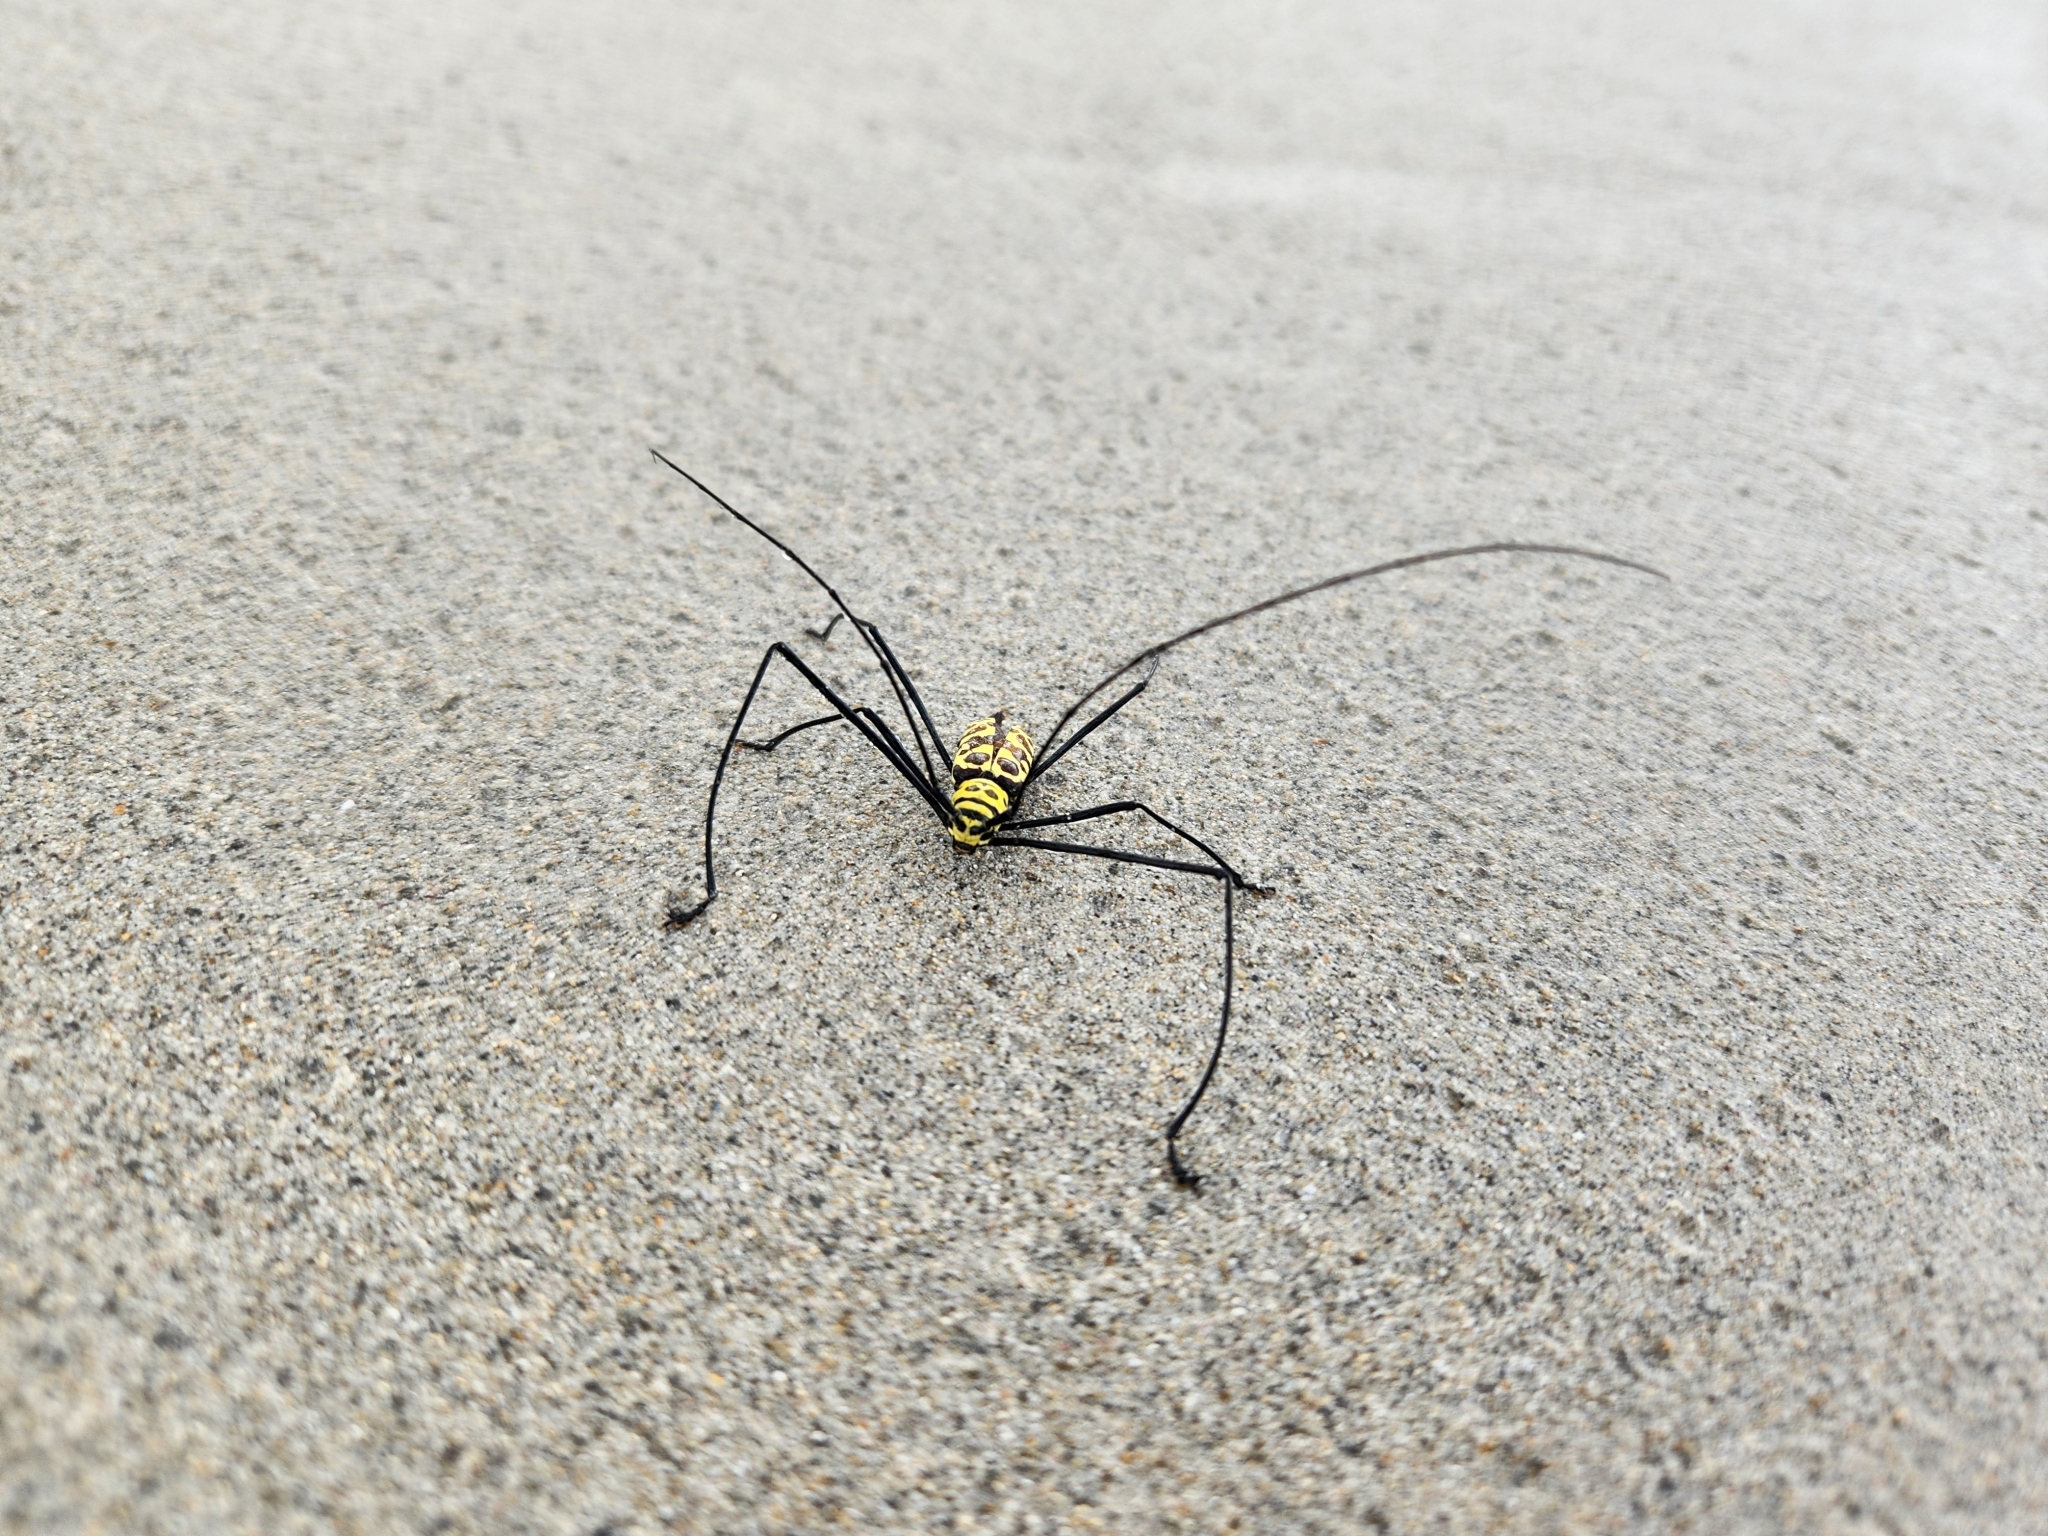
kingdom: Animalia
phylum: Arthropoda
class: Insecta
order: Coleoptera
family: Cerambycidae
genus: Gerania
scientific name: Gerania boscii
